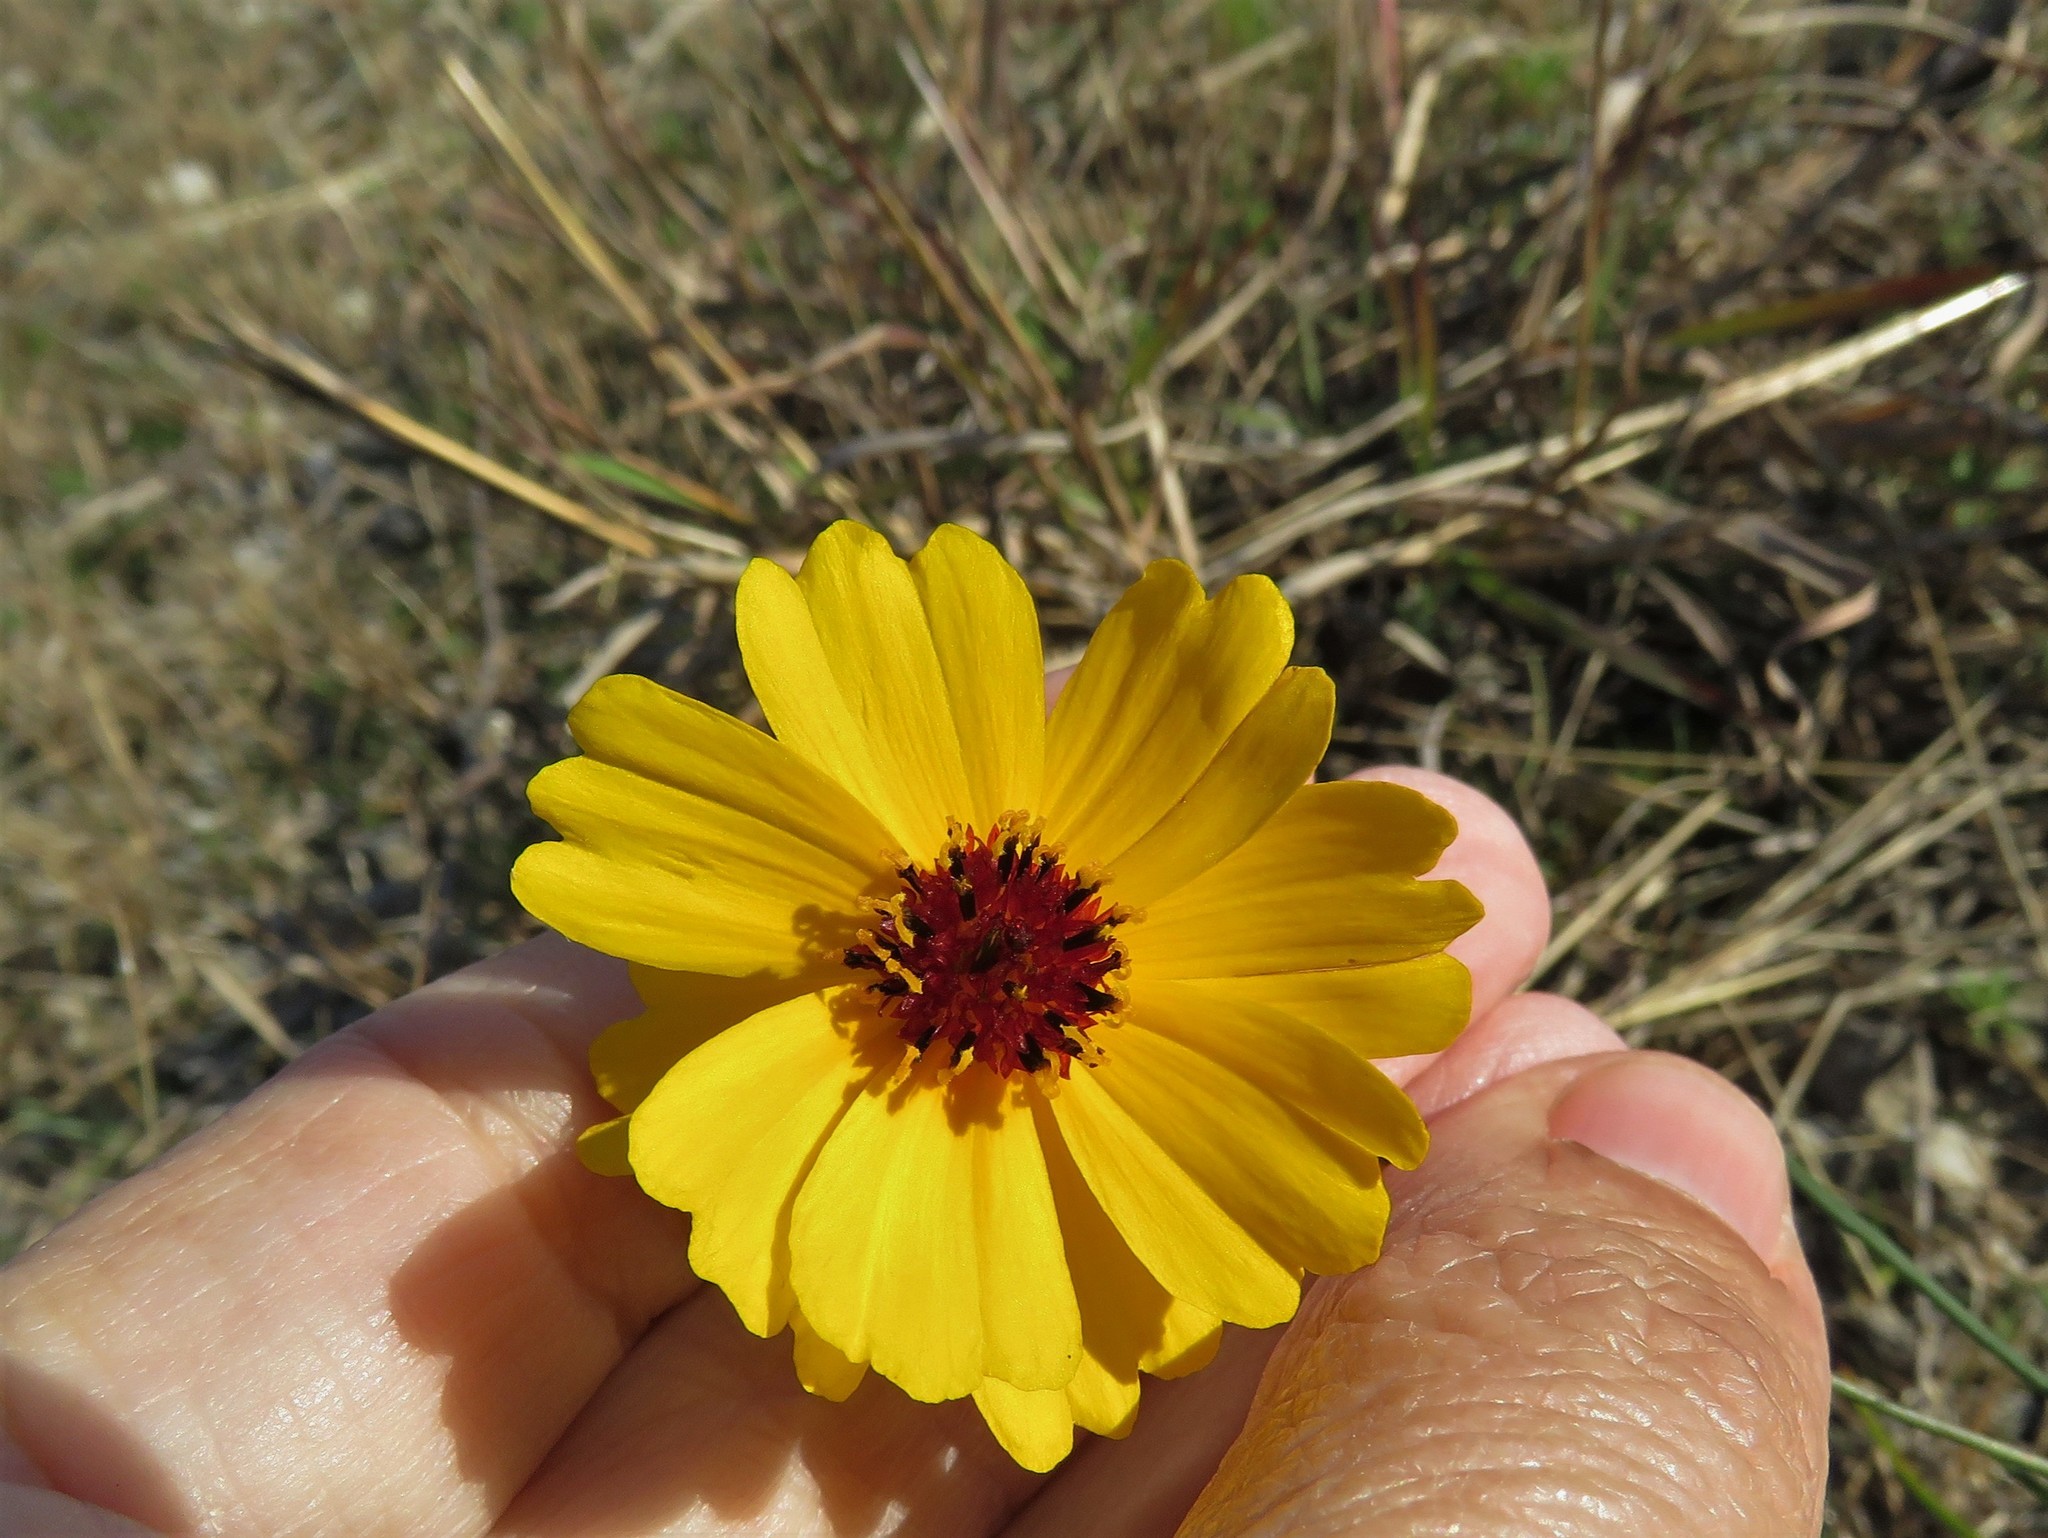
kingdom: Plantae
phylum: Tracheophyta
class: Magnoliopsida
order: Asterales
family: Asteraceae
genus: Thelesperma
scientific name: Thelesperma filifolium
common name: Stiff greenthread
